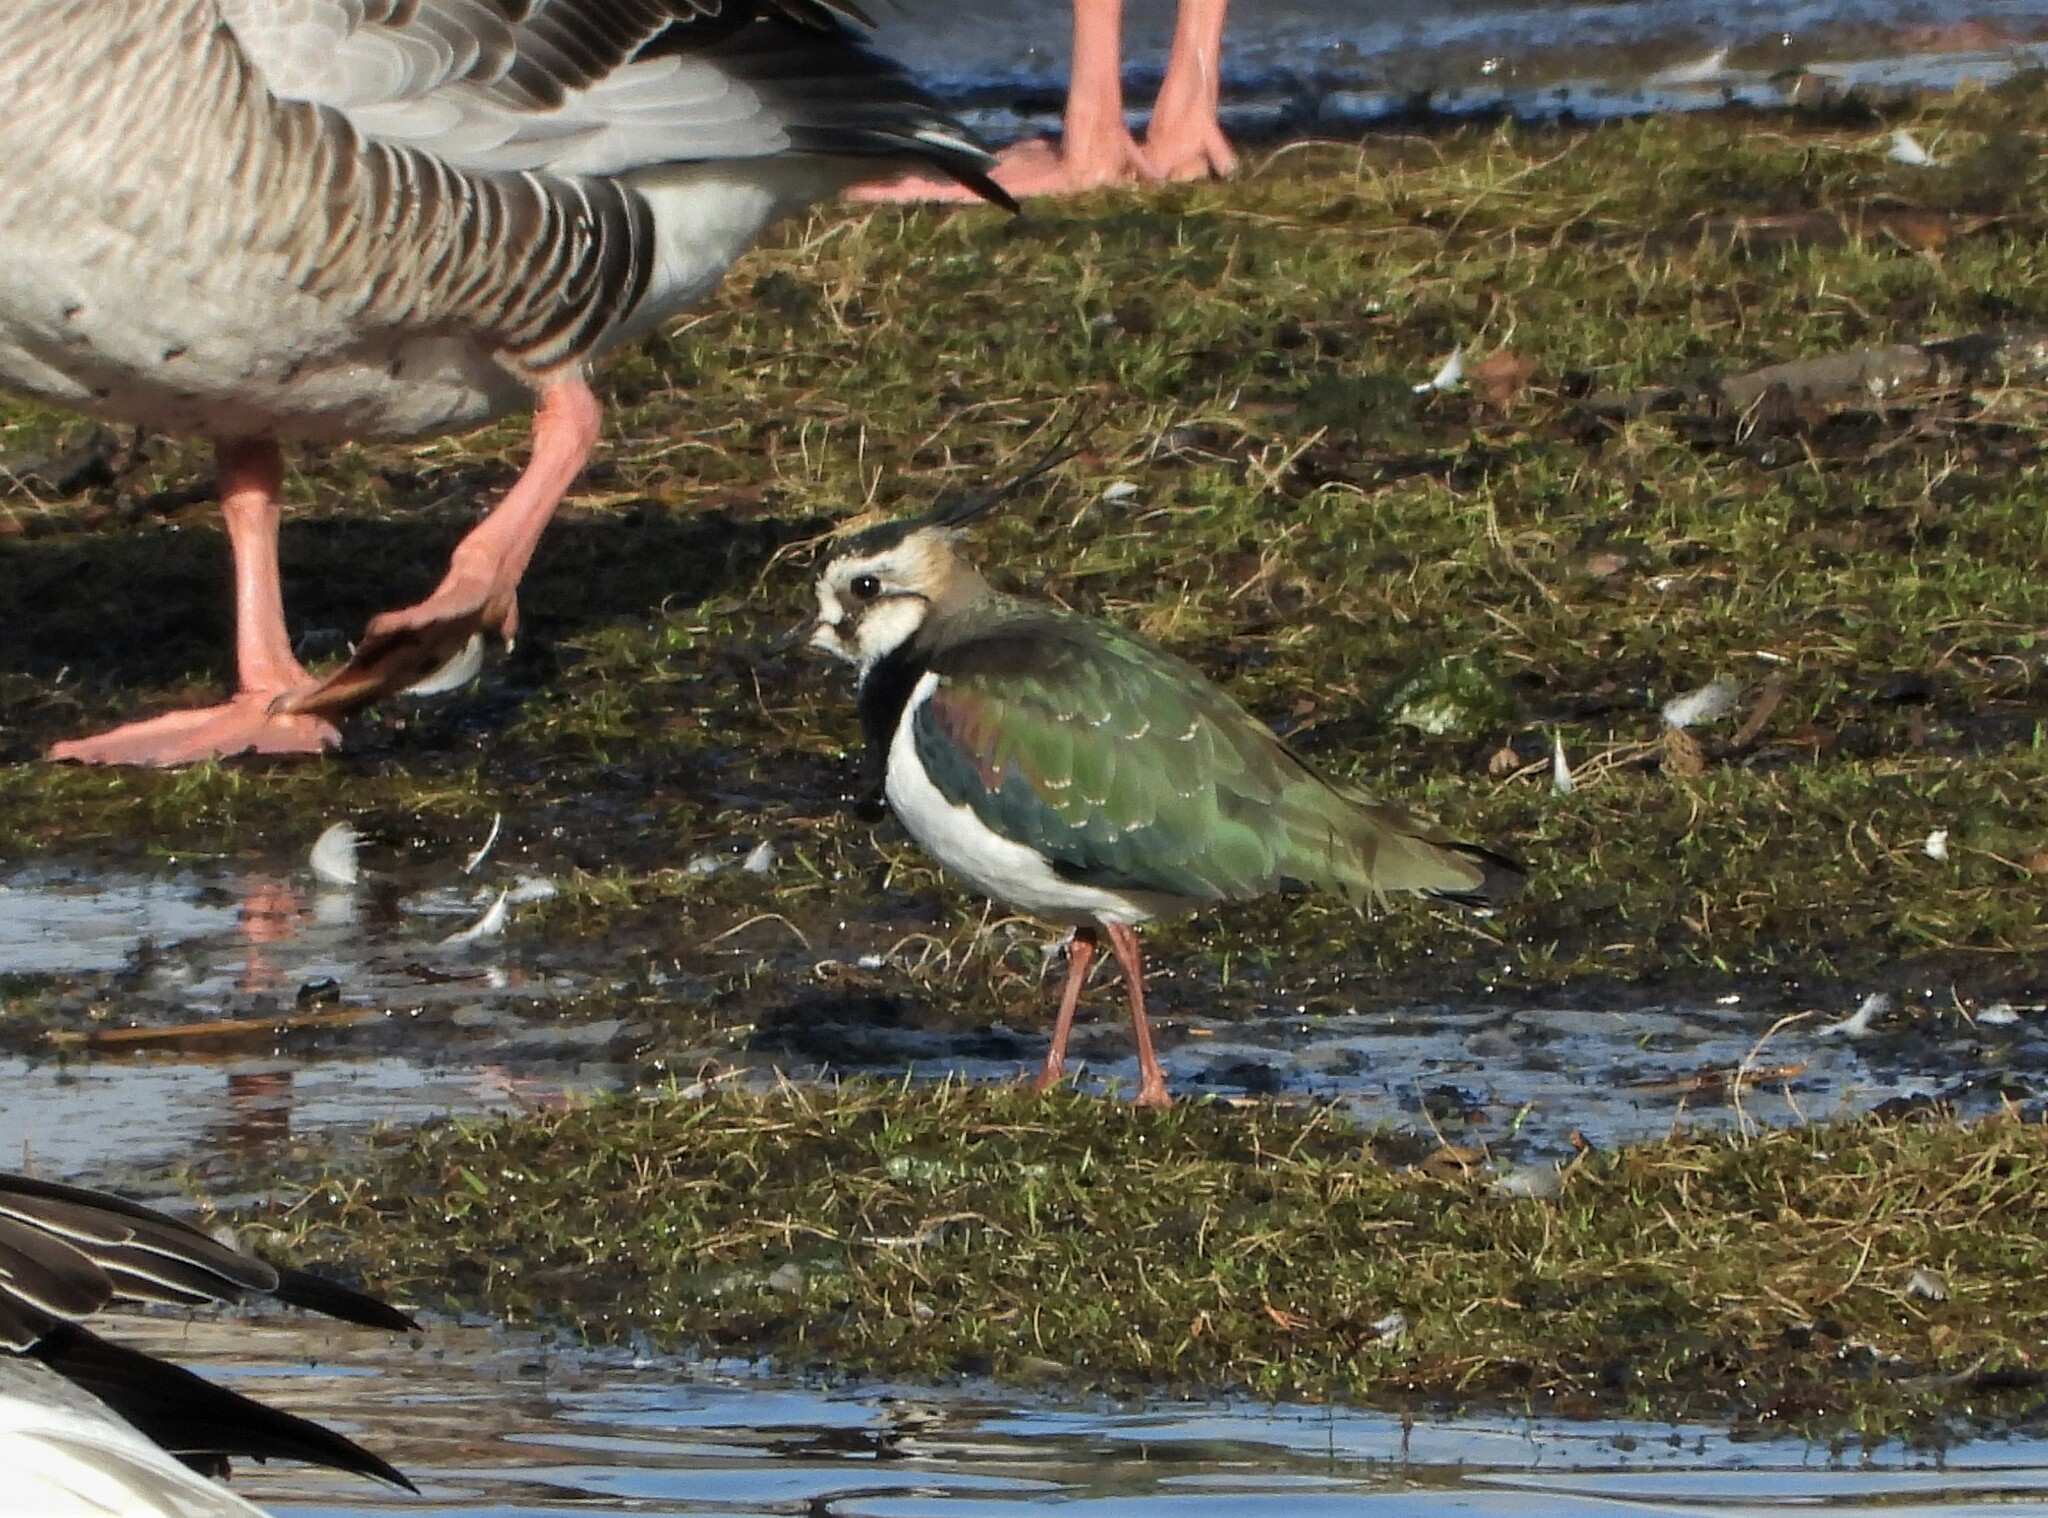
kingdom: Animalia
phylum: Chordata
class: Aves
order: Charadriiformes
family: Charadriidae
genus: Vanellus
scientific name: Vanellus vanellus
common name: Northern lapwing
